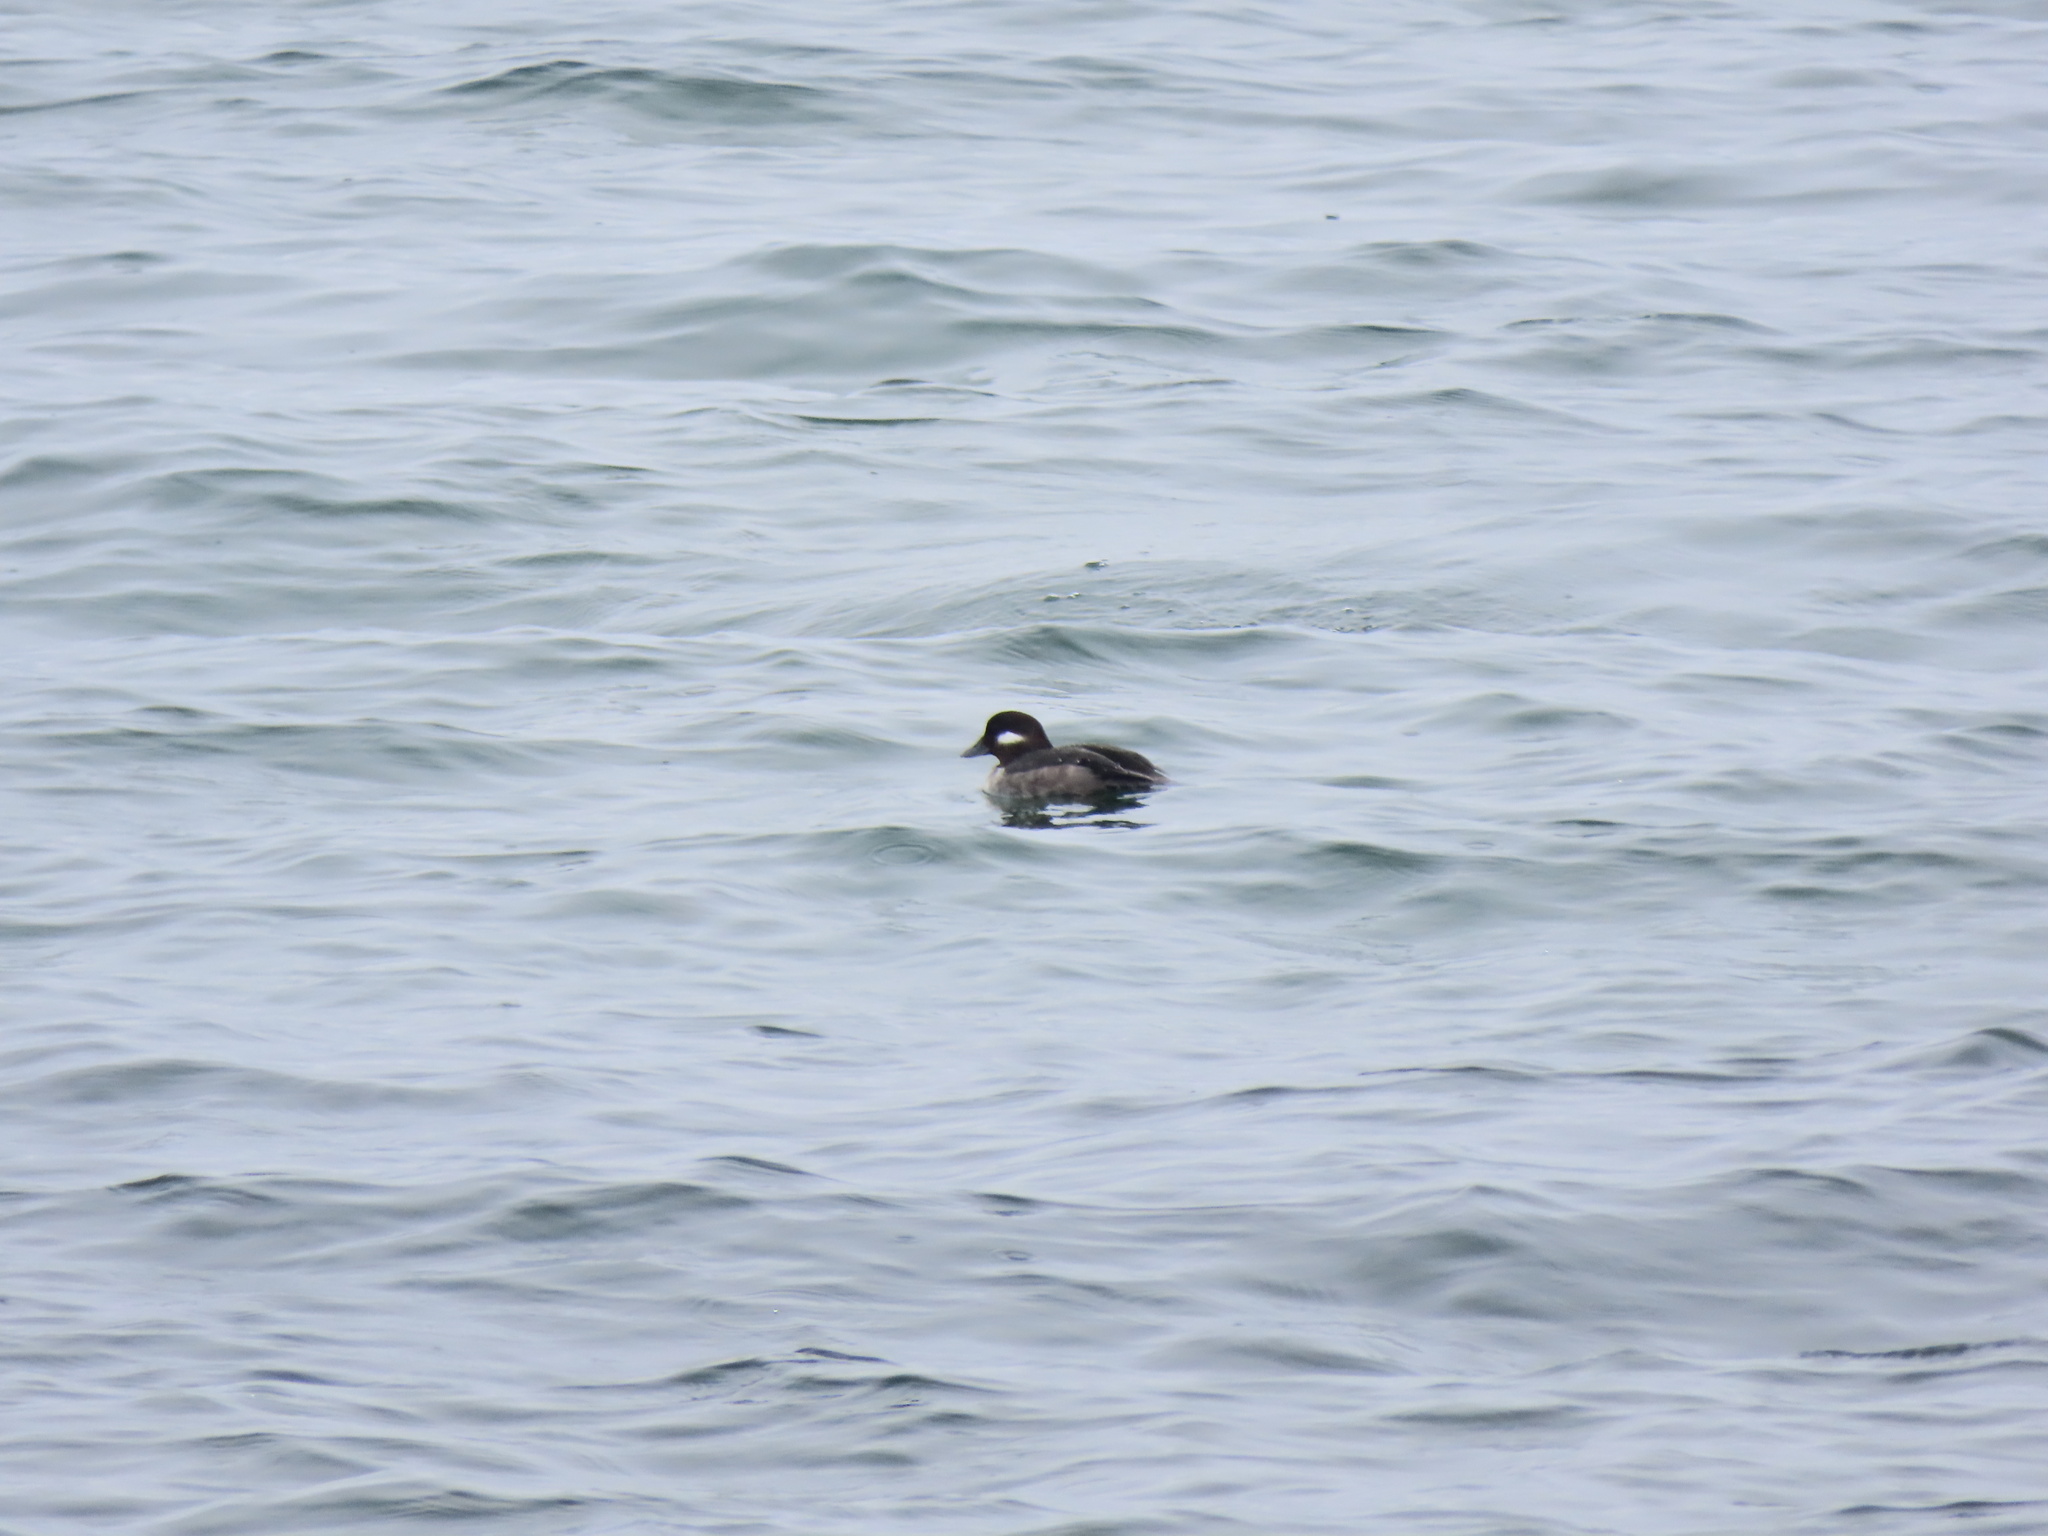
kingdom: Animalia
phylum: Chordata
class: Aves
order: Anseriformes
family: Anatidae
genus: Bucephala
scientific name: Bucephala albeola
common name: Bufflehead
